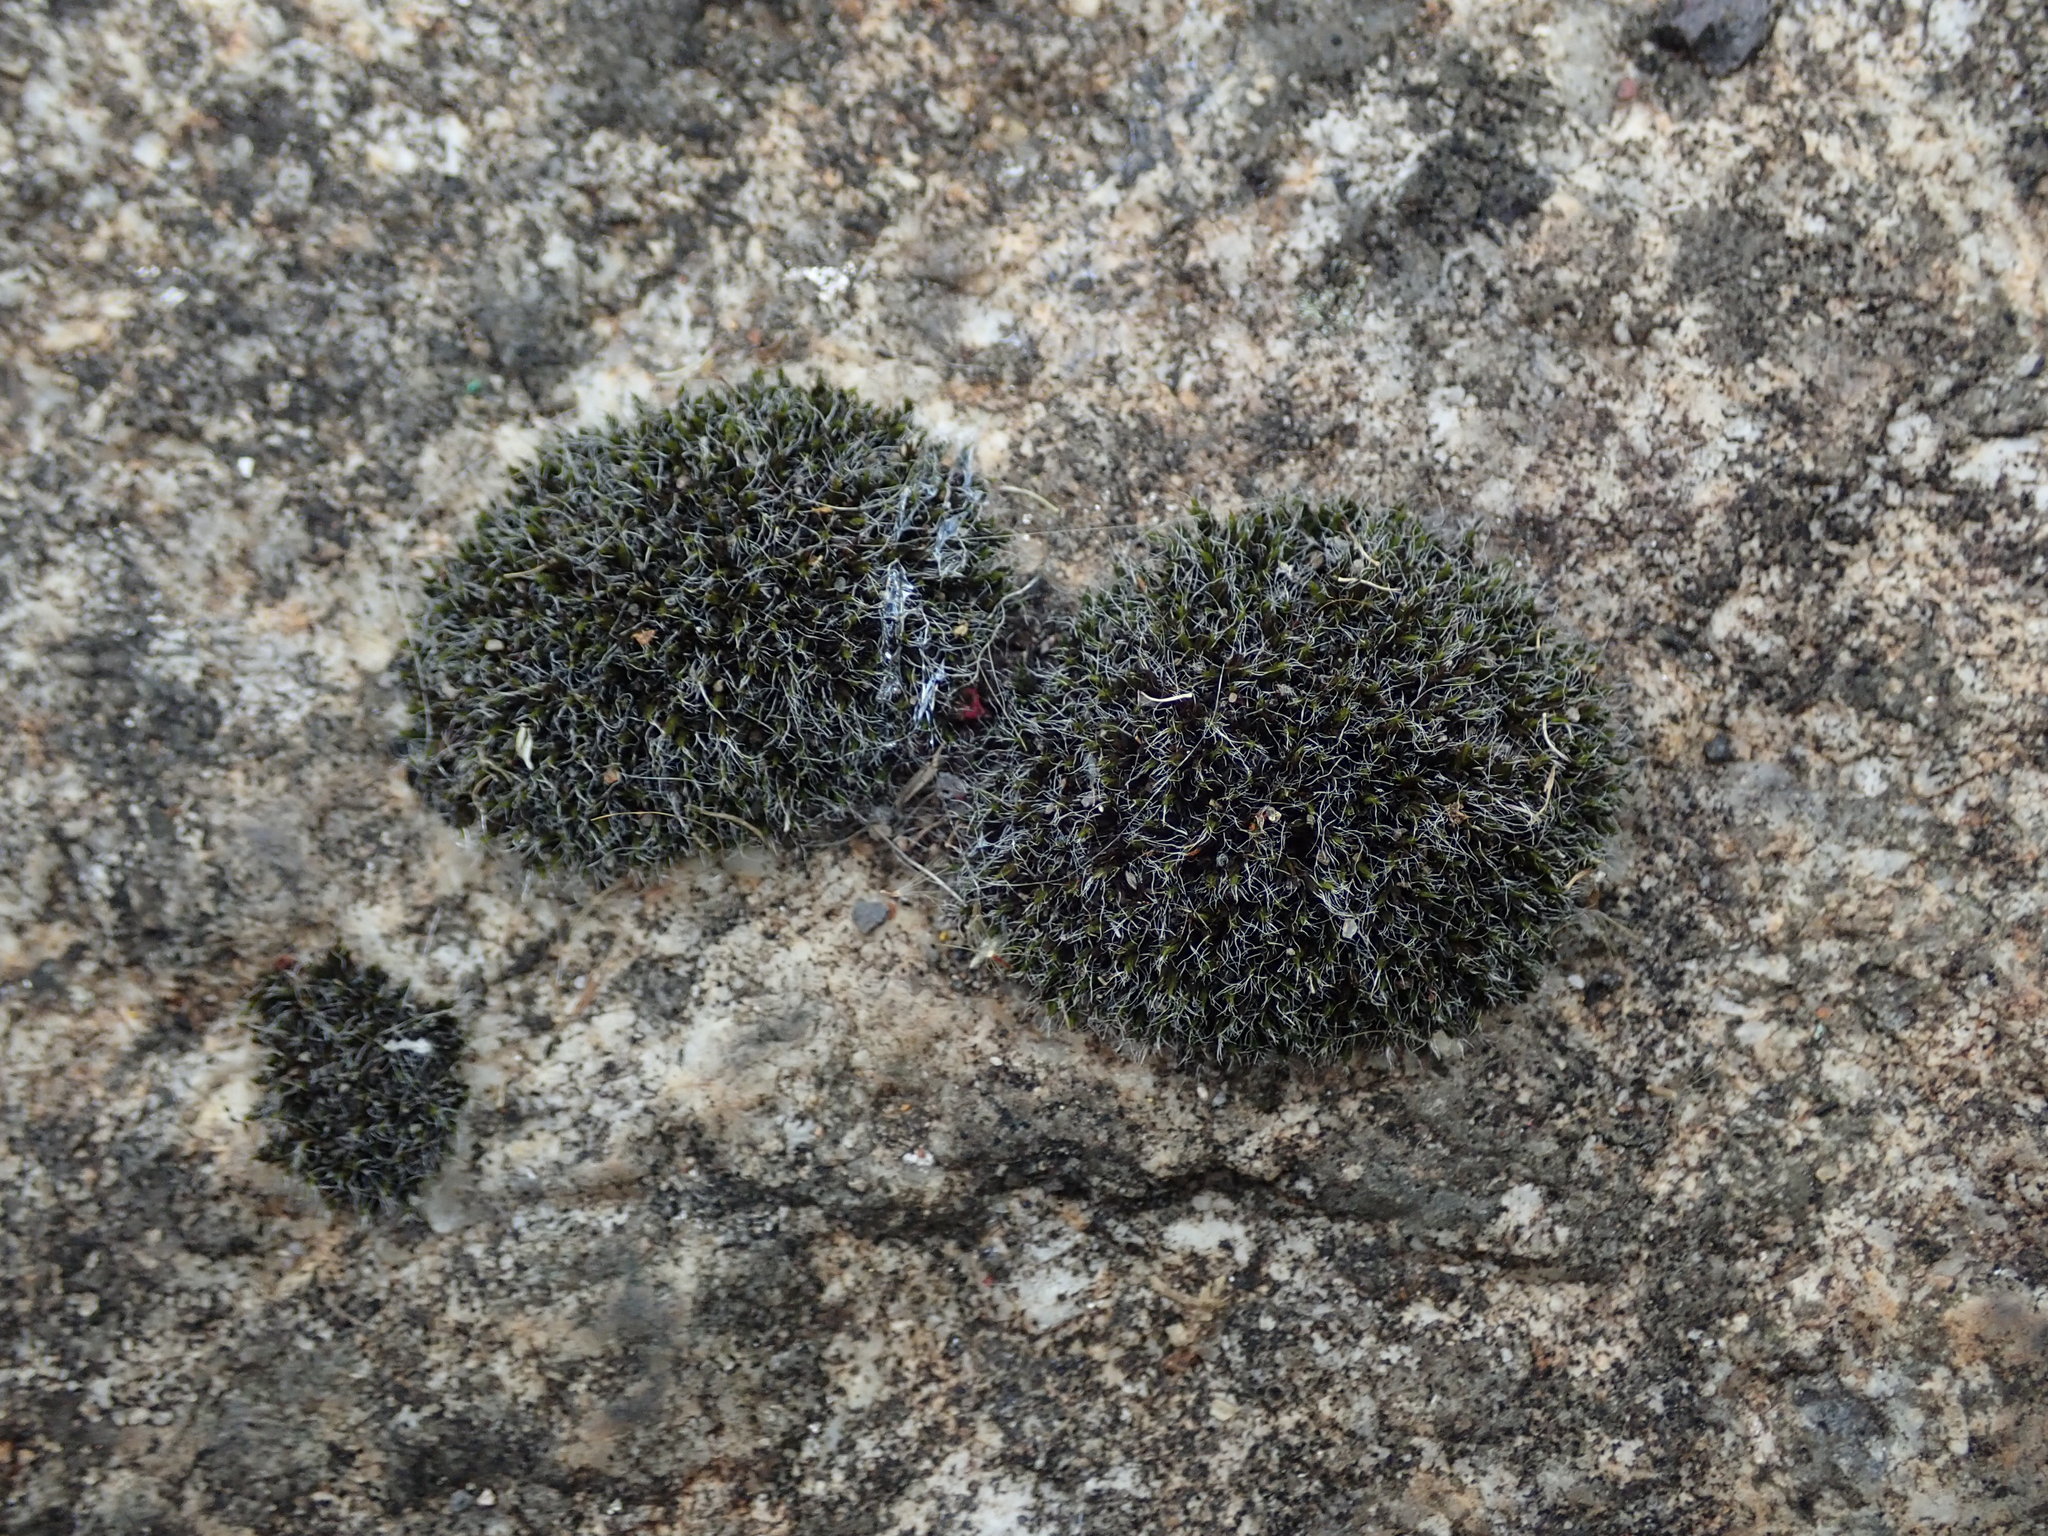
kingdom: Plantae
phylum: Bryophyta
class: Bryopsida
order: Grimmiales
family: Grimmiaceae
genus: Grimmia
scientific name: Grimmia pulvinata
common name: Grey-cushioned grimmia
